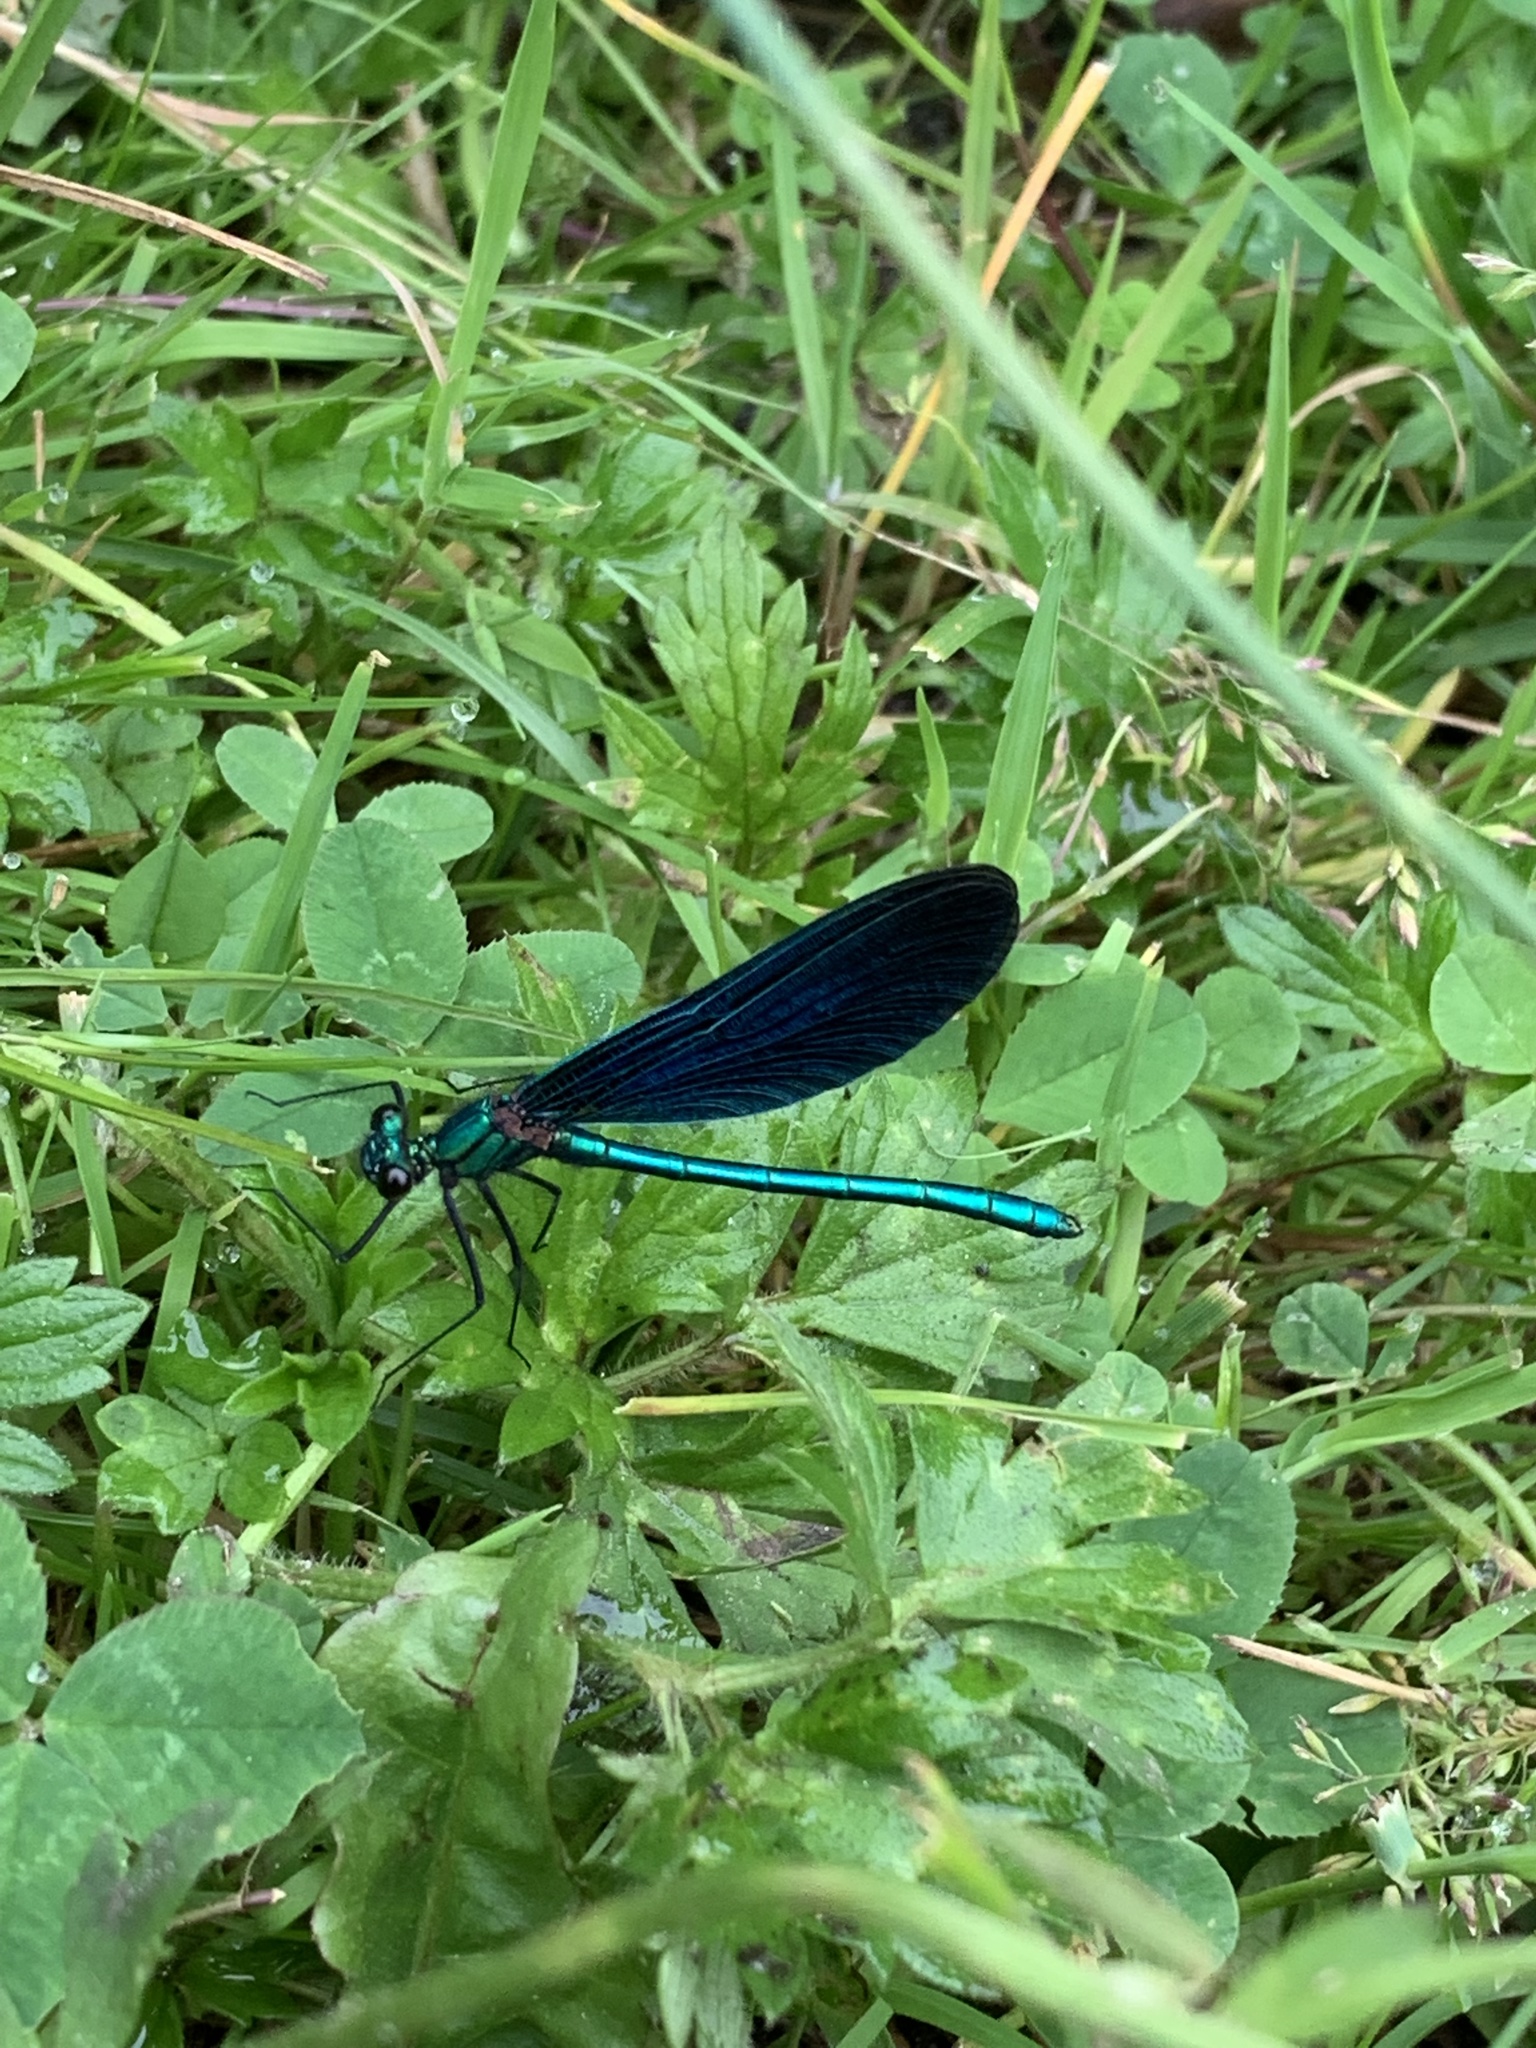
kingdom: Animalia
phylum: Arthropoda
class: Insecta
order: Odonata
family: Calopterygidae
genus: Calopteryx
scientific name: Calopteryx virgo
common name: Beautiful demoiselle
